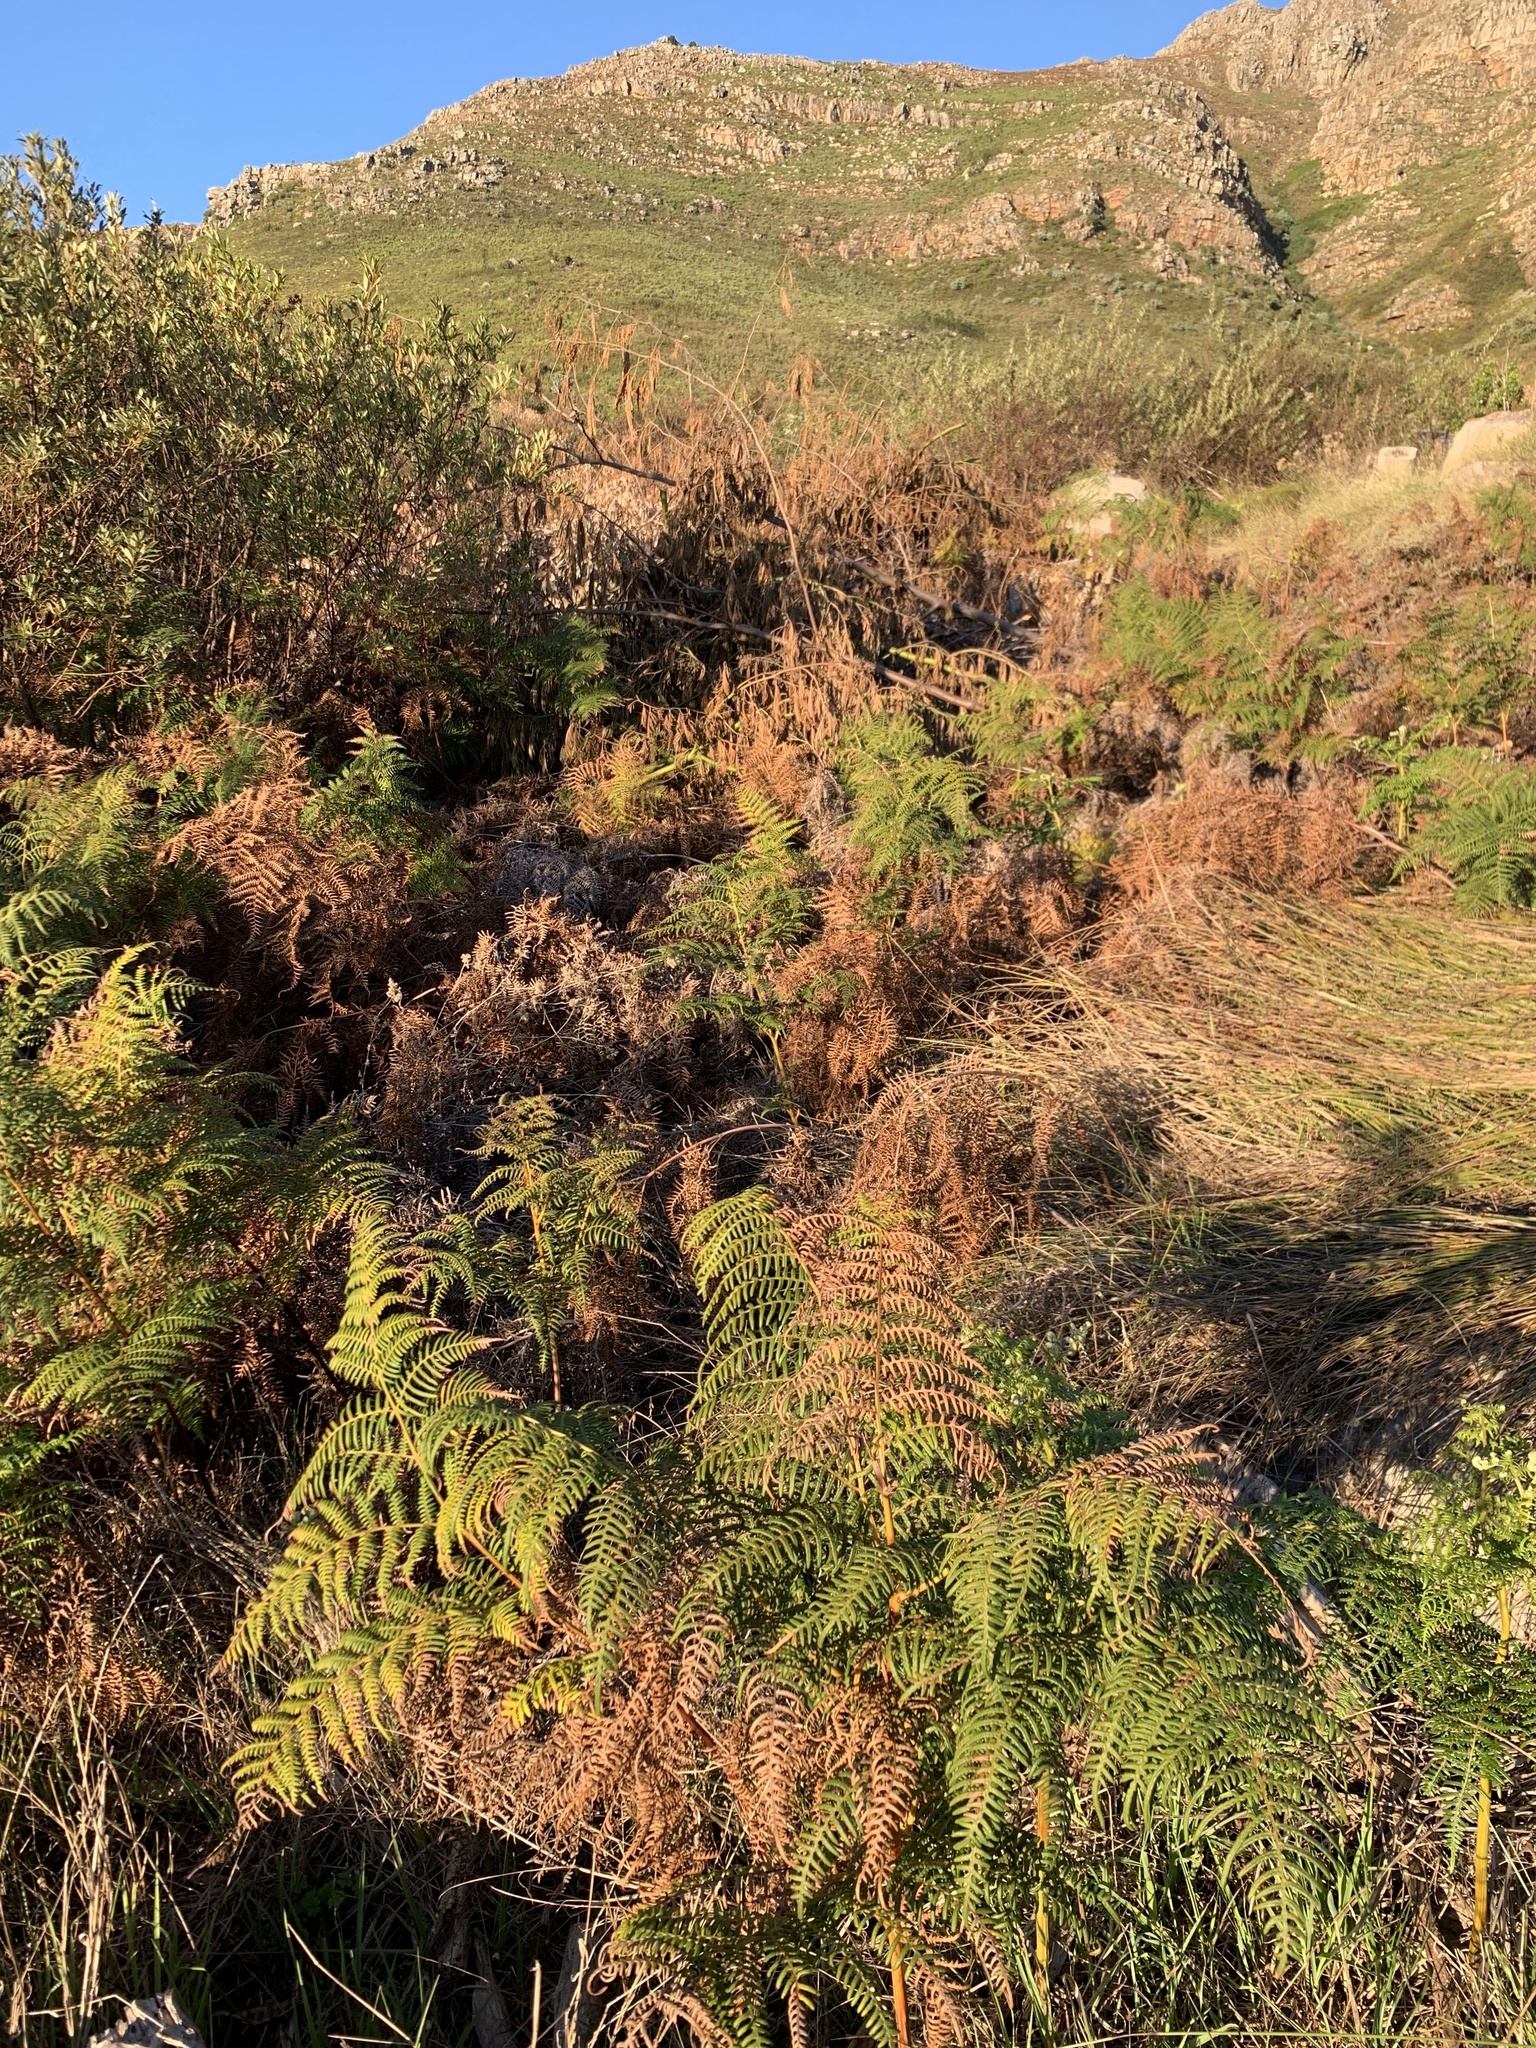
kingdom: Plantae
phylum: Tracheophyta
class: Polypodiopsida
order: Polypodiales
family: Dennstaedtiaceae
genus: Pteridium
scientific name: Pteridium aquilinum
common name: Bracken
